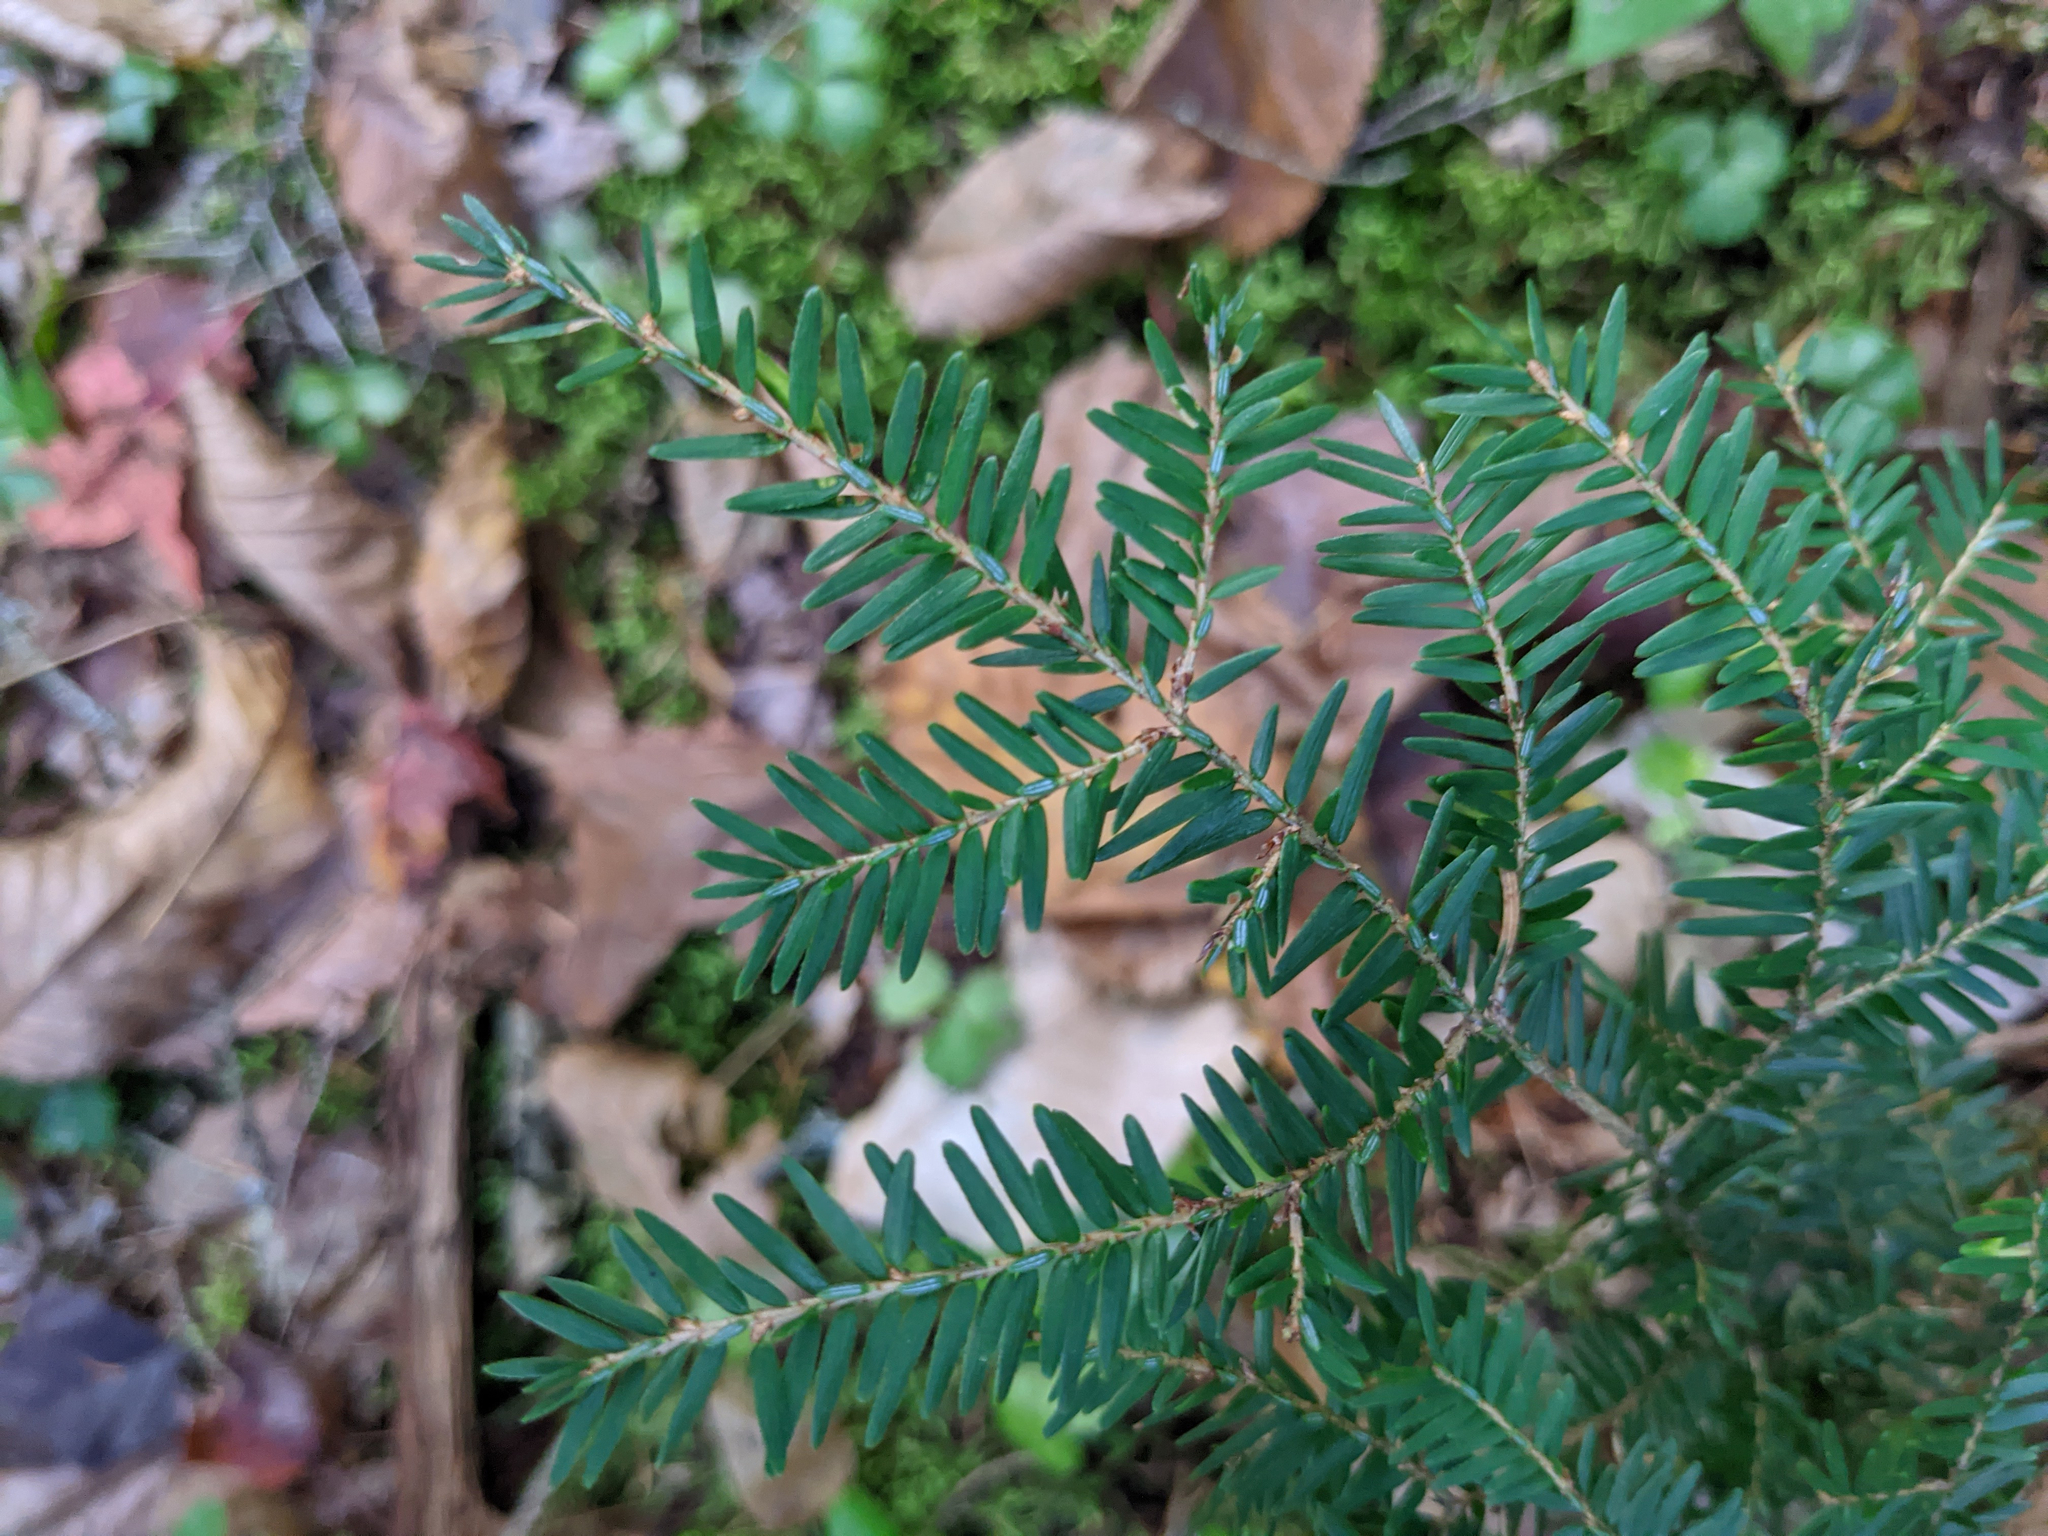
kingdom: Plantae
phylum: Tracheophyta
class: Pinopsida
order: Pinales
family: Pinaceae
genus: Tsuga
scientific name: Tsuga canadensis
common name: Eastern hemlock
